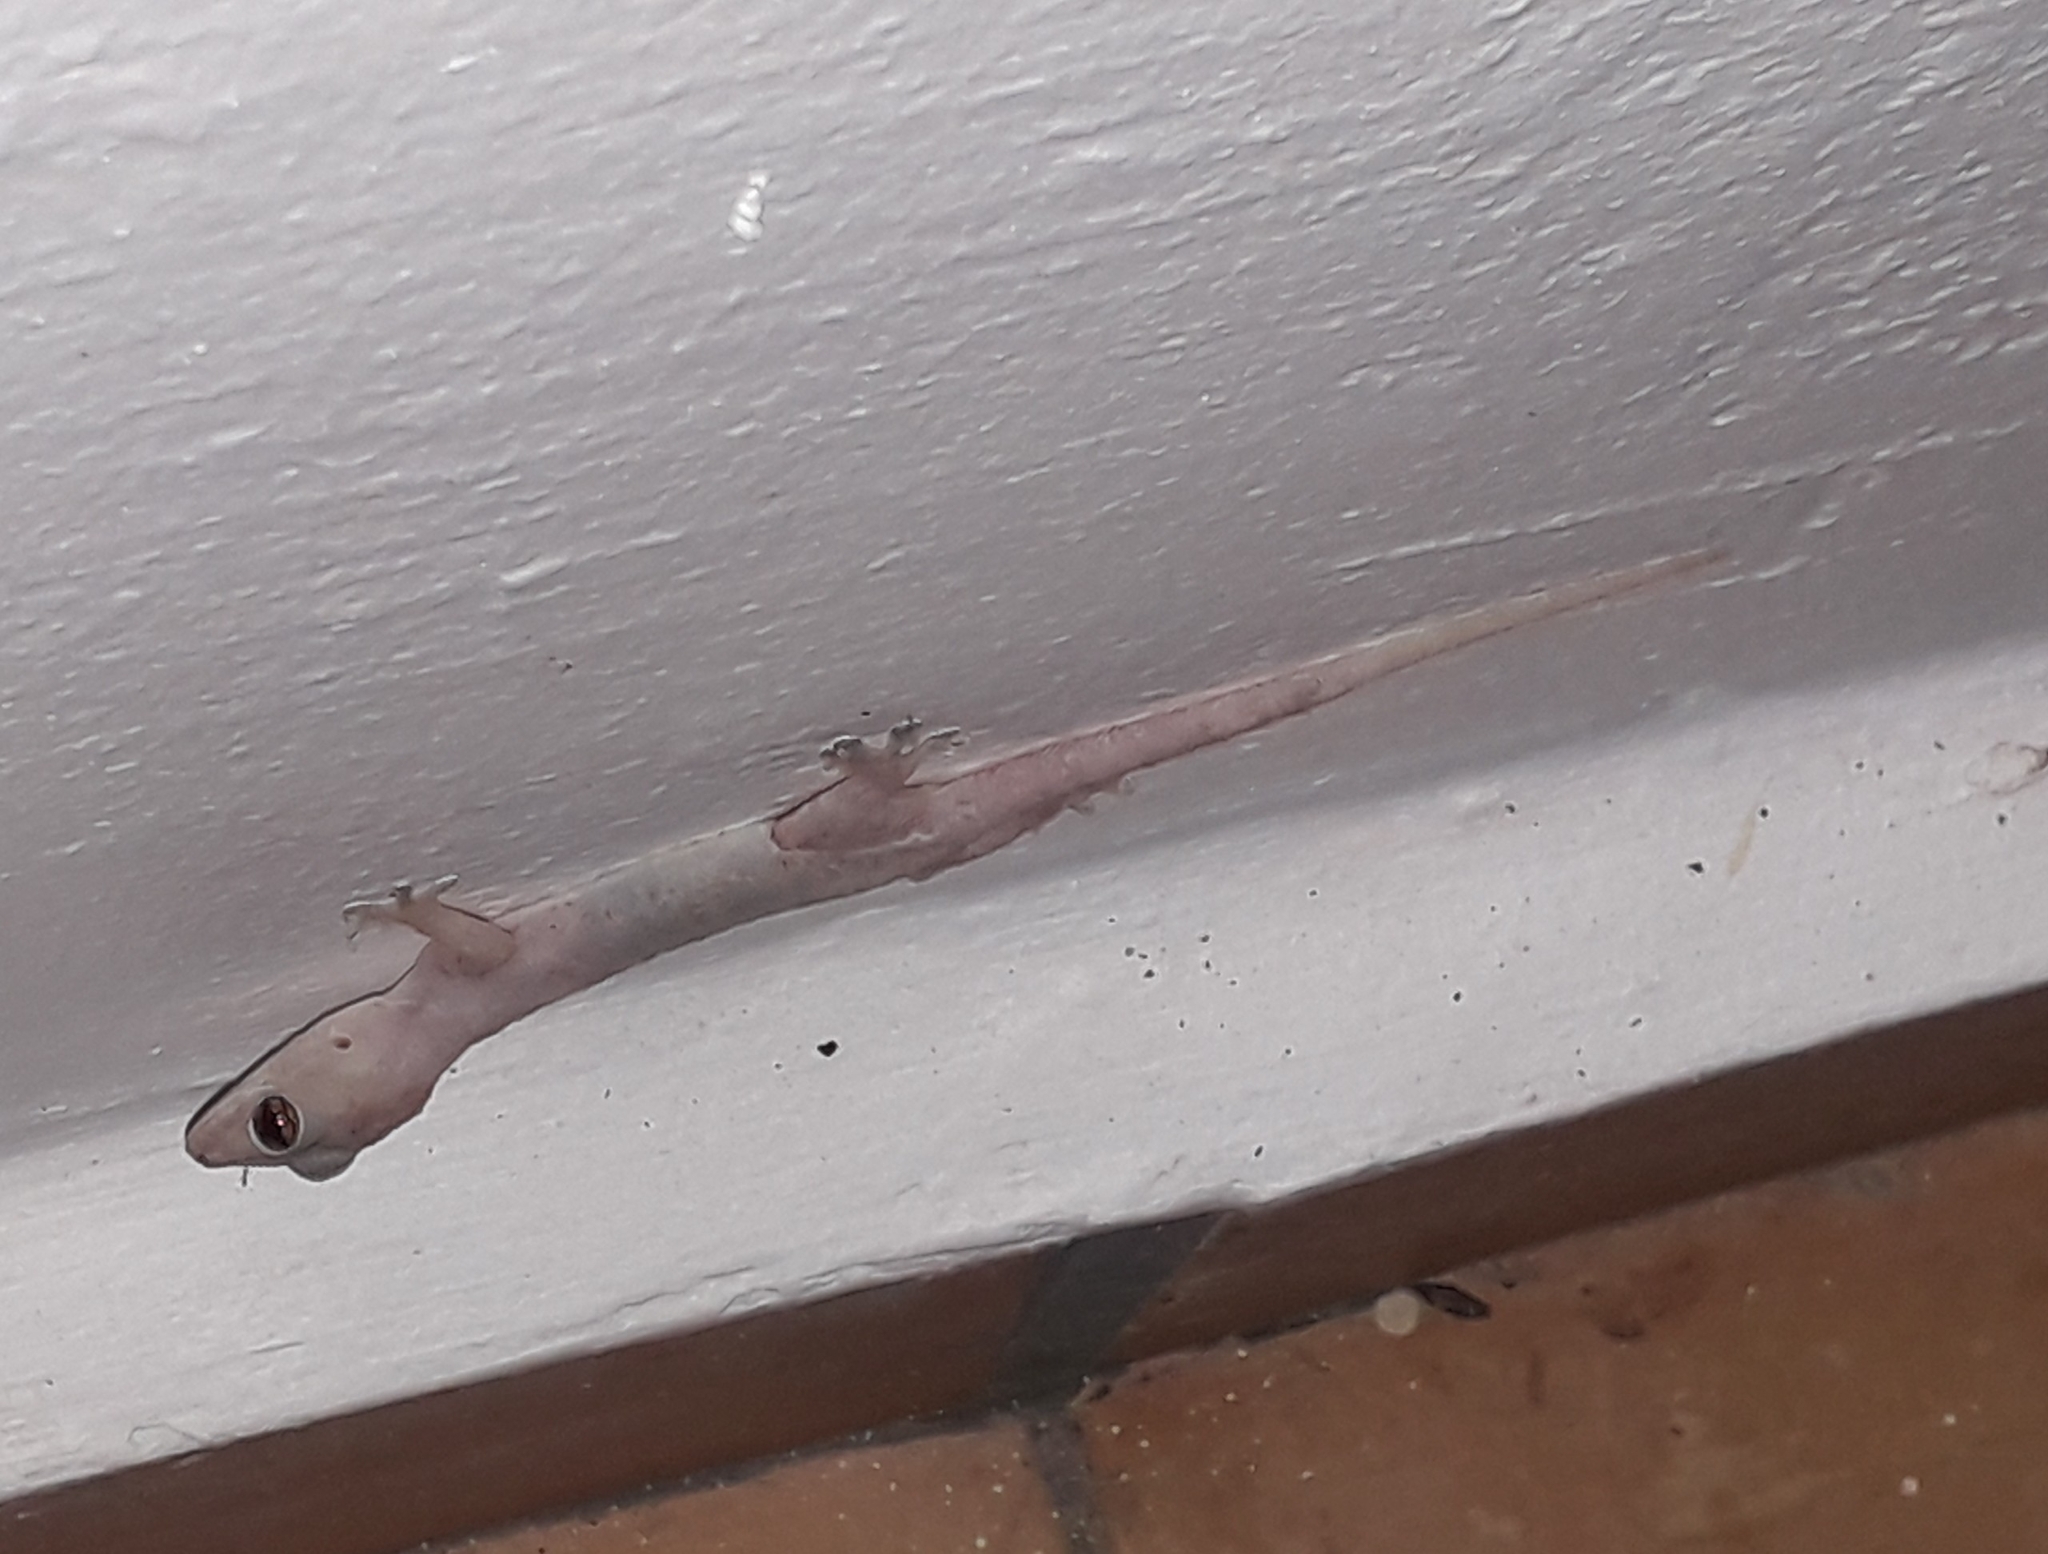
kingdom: Animalia
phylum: Chordata
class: Squamata
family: Gekkonidae
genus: Hemidactylus
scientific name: Hemidactylus mabouia
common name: House gecko
